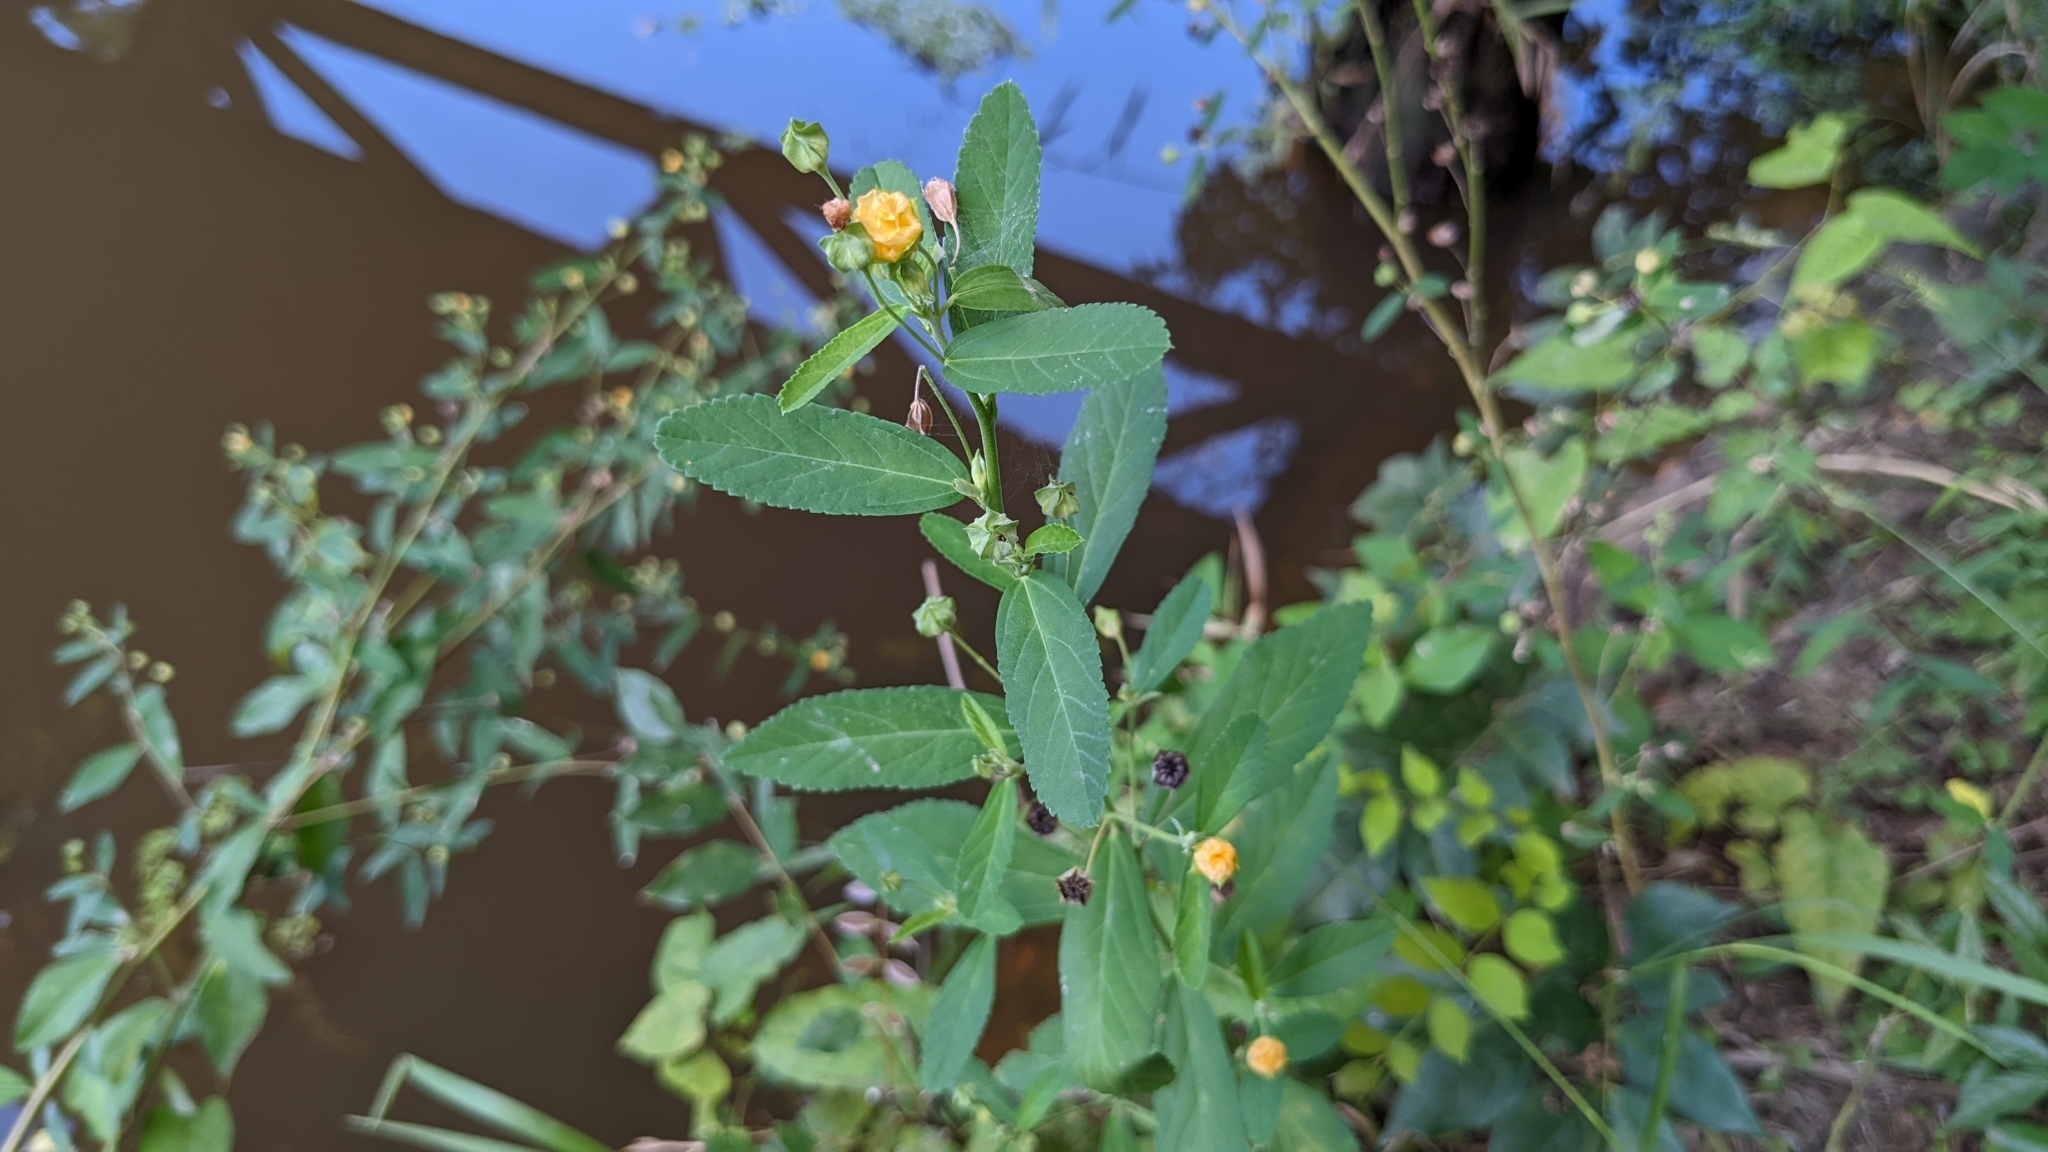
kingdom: Plantae
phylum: Tracheophyta
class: Magnoliopsida
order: Malvales
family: Malvaceae
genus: Sida
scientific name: Sida rhombifolia
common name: Queensland-hemp
